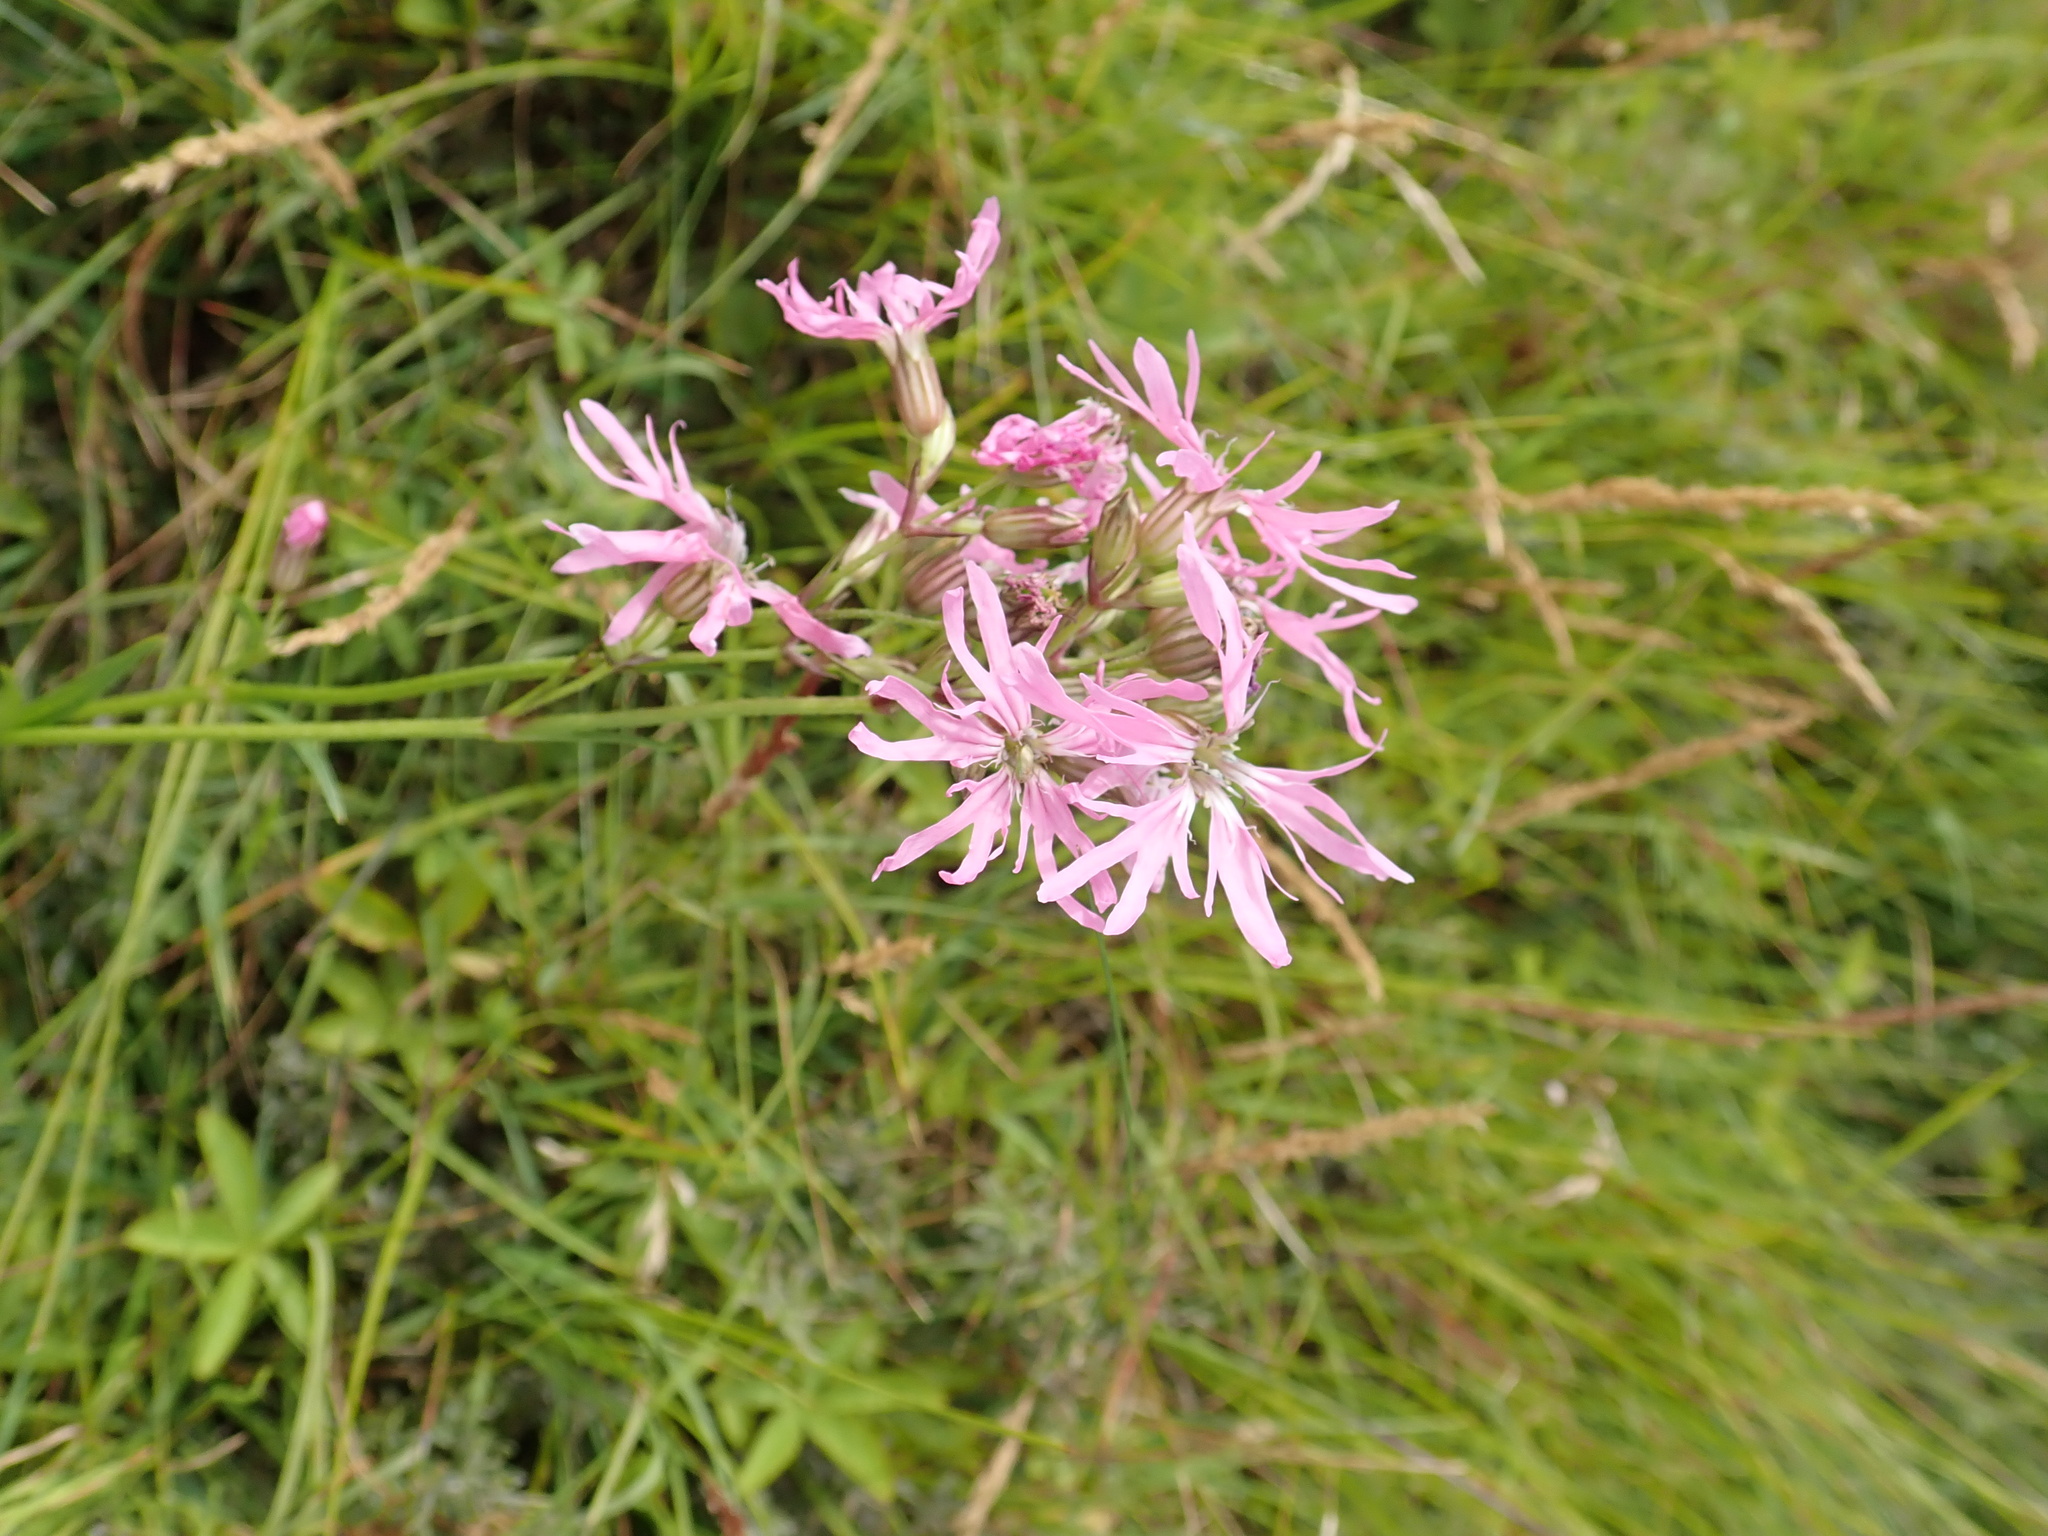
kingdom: Plantae
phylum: Tracheophyta
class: Magnoliopsida
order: Caryophyllales
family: Caryophyllaceae
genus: Silene
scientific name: Silene flos-cuculi
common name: Ragged-robin
